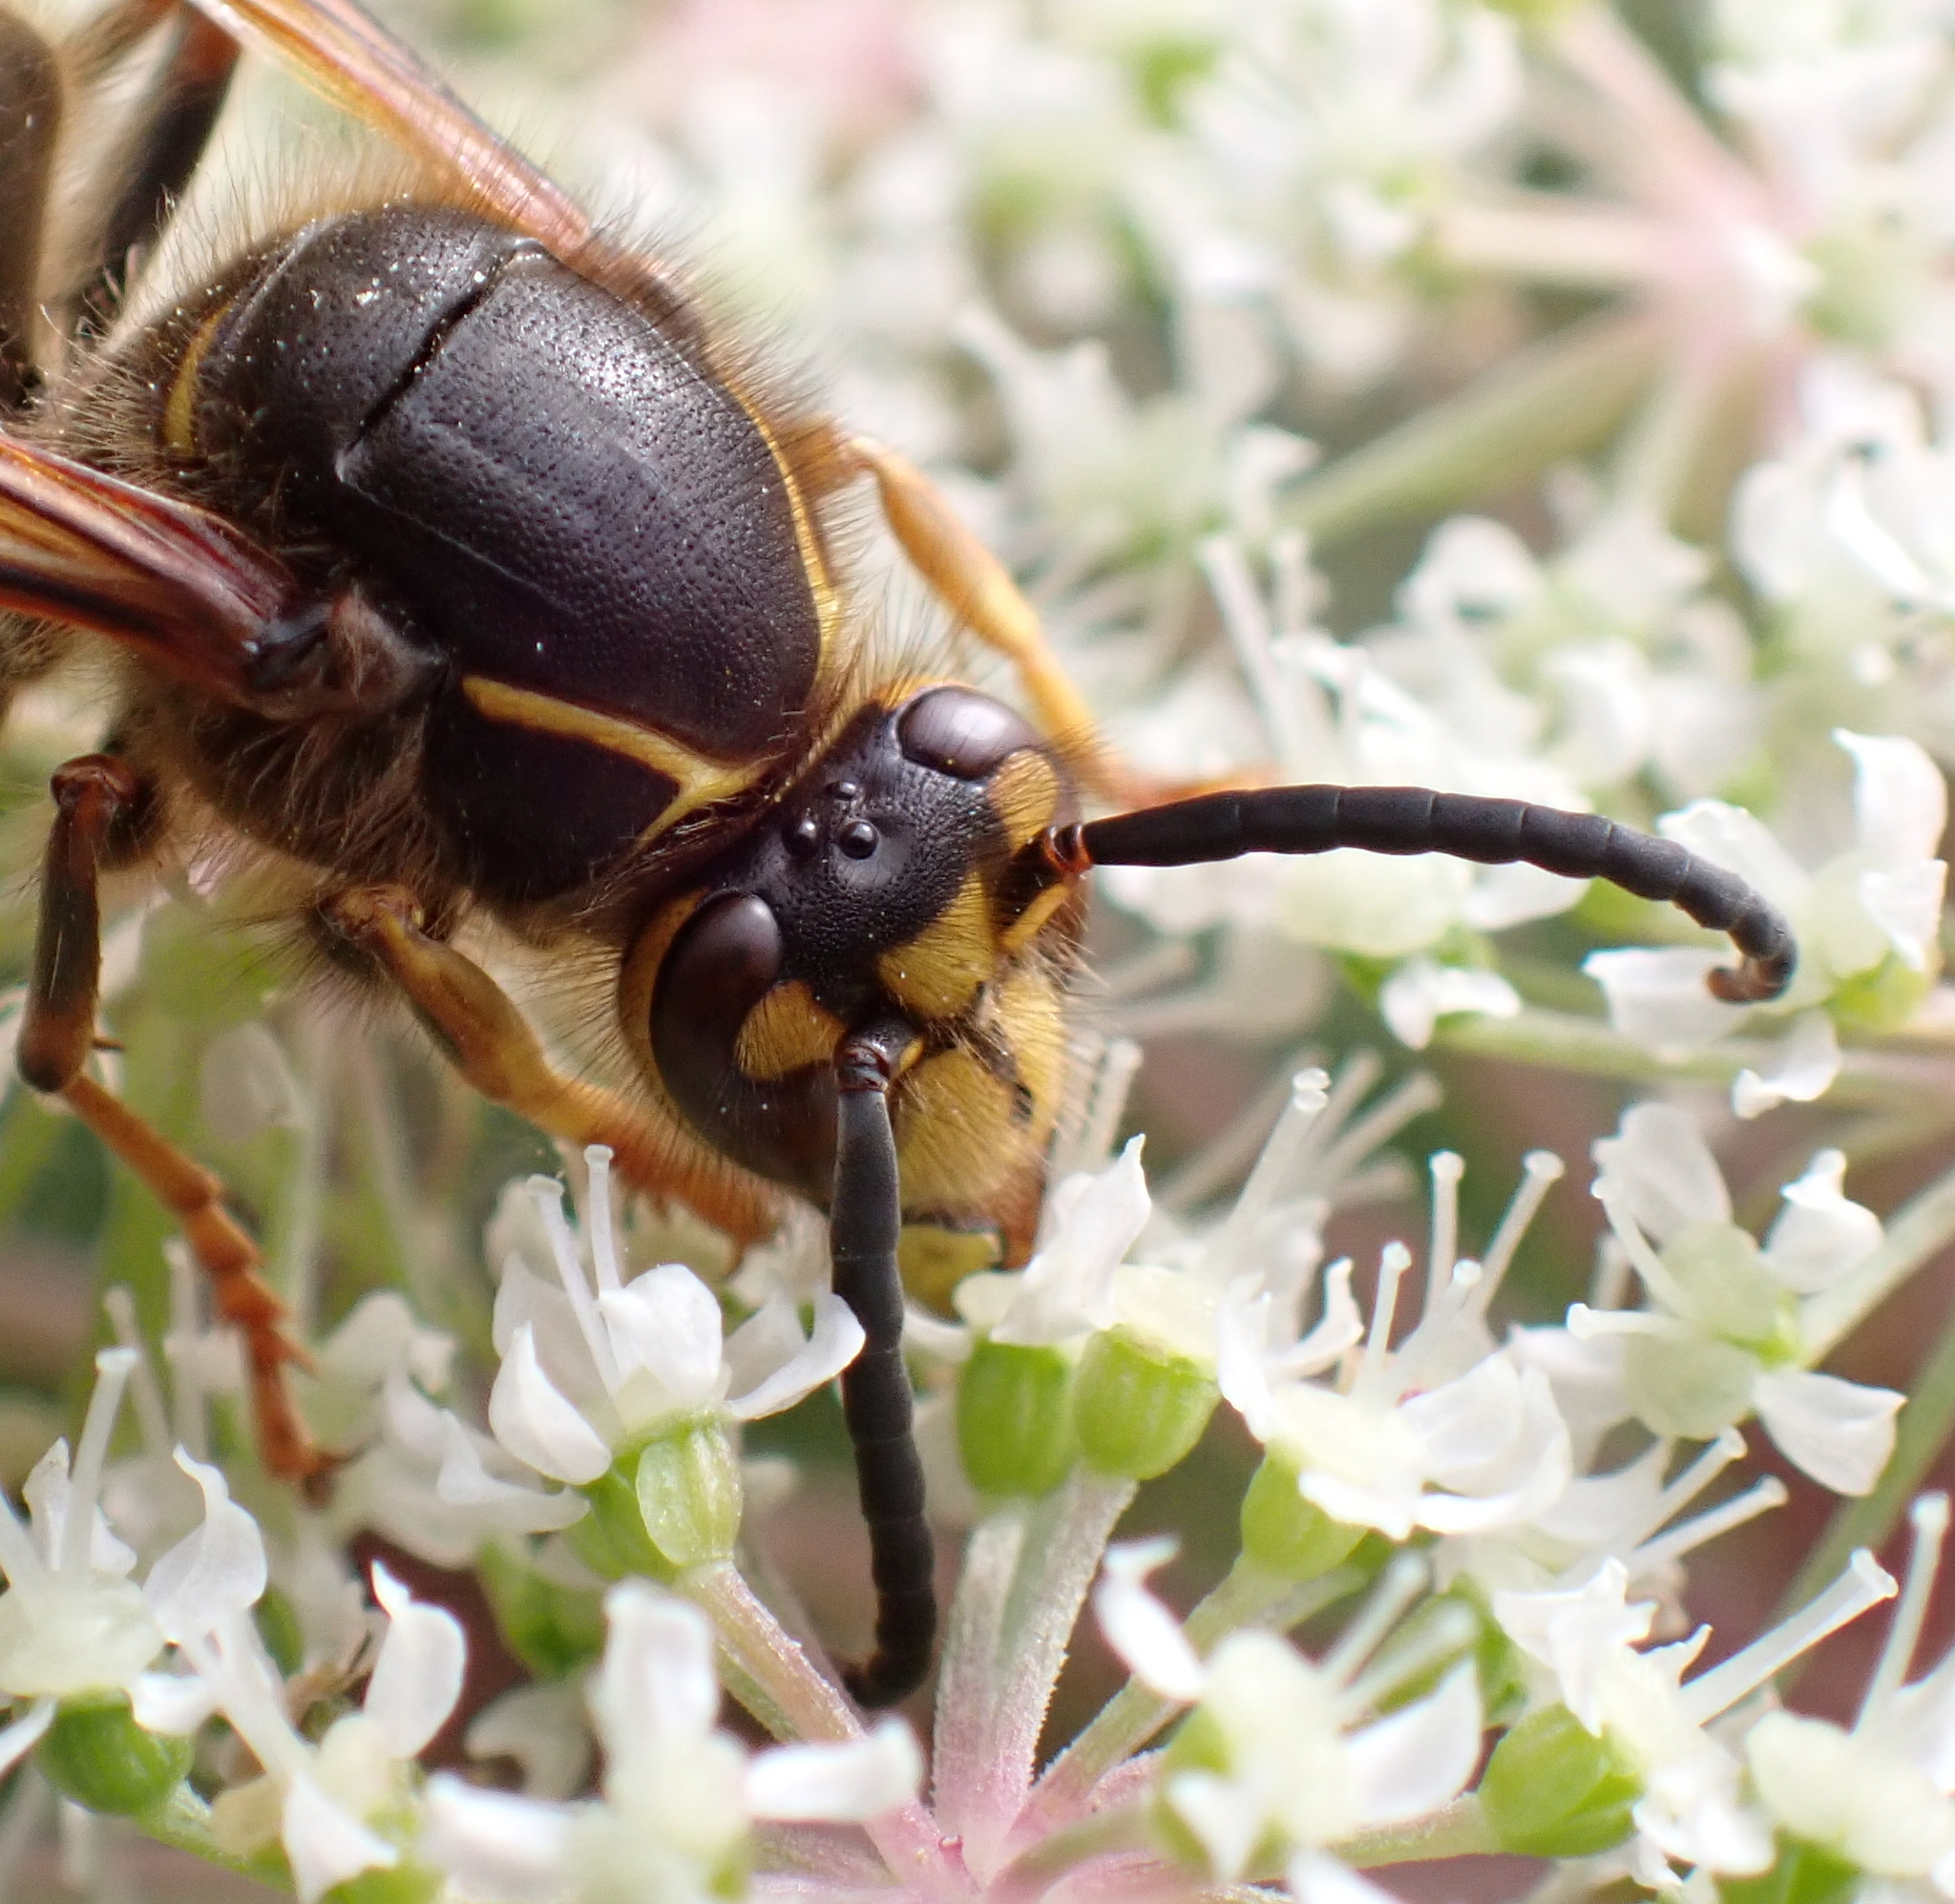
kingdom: Animalia
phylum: Arthropoda
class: Insecta
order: Hymenoptera
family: Vespidae
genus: Dolichovespula
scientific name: Dolichovespula media
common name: Median wasp
